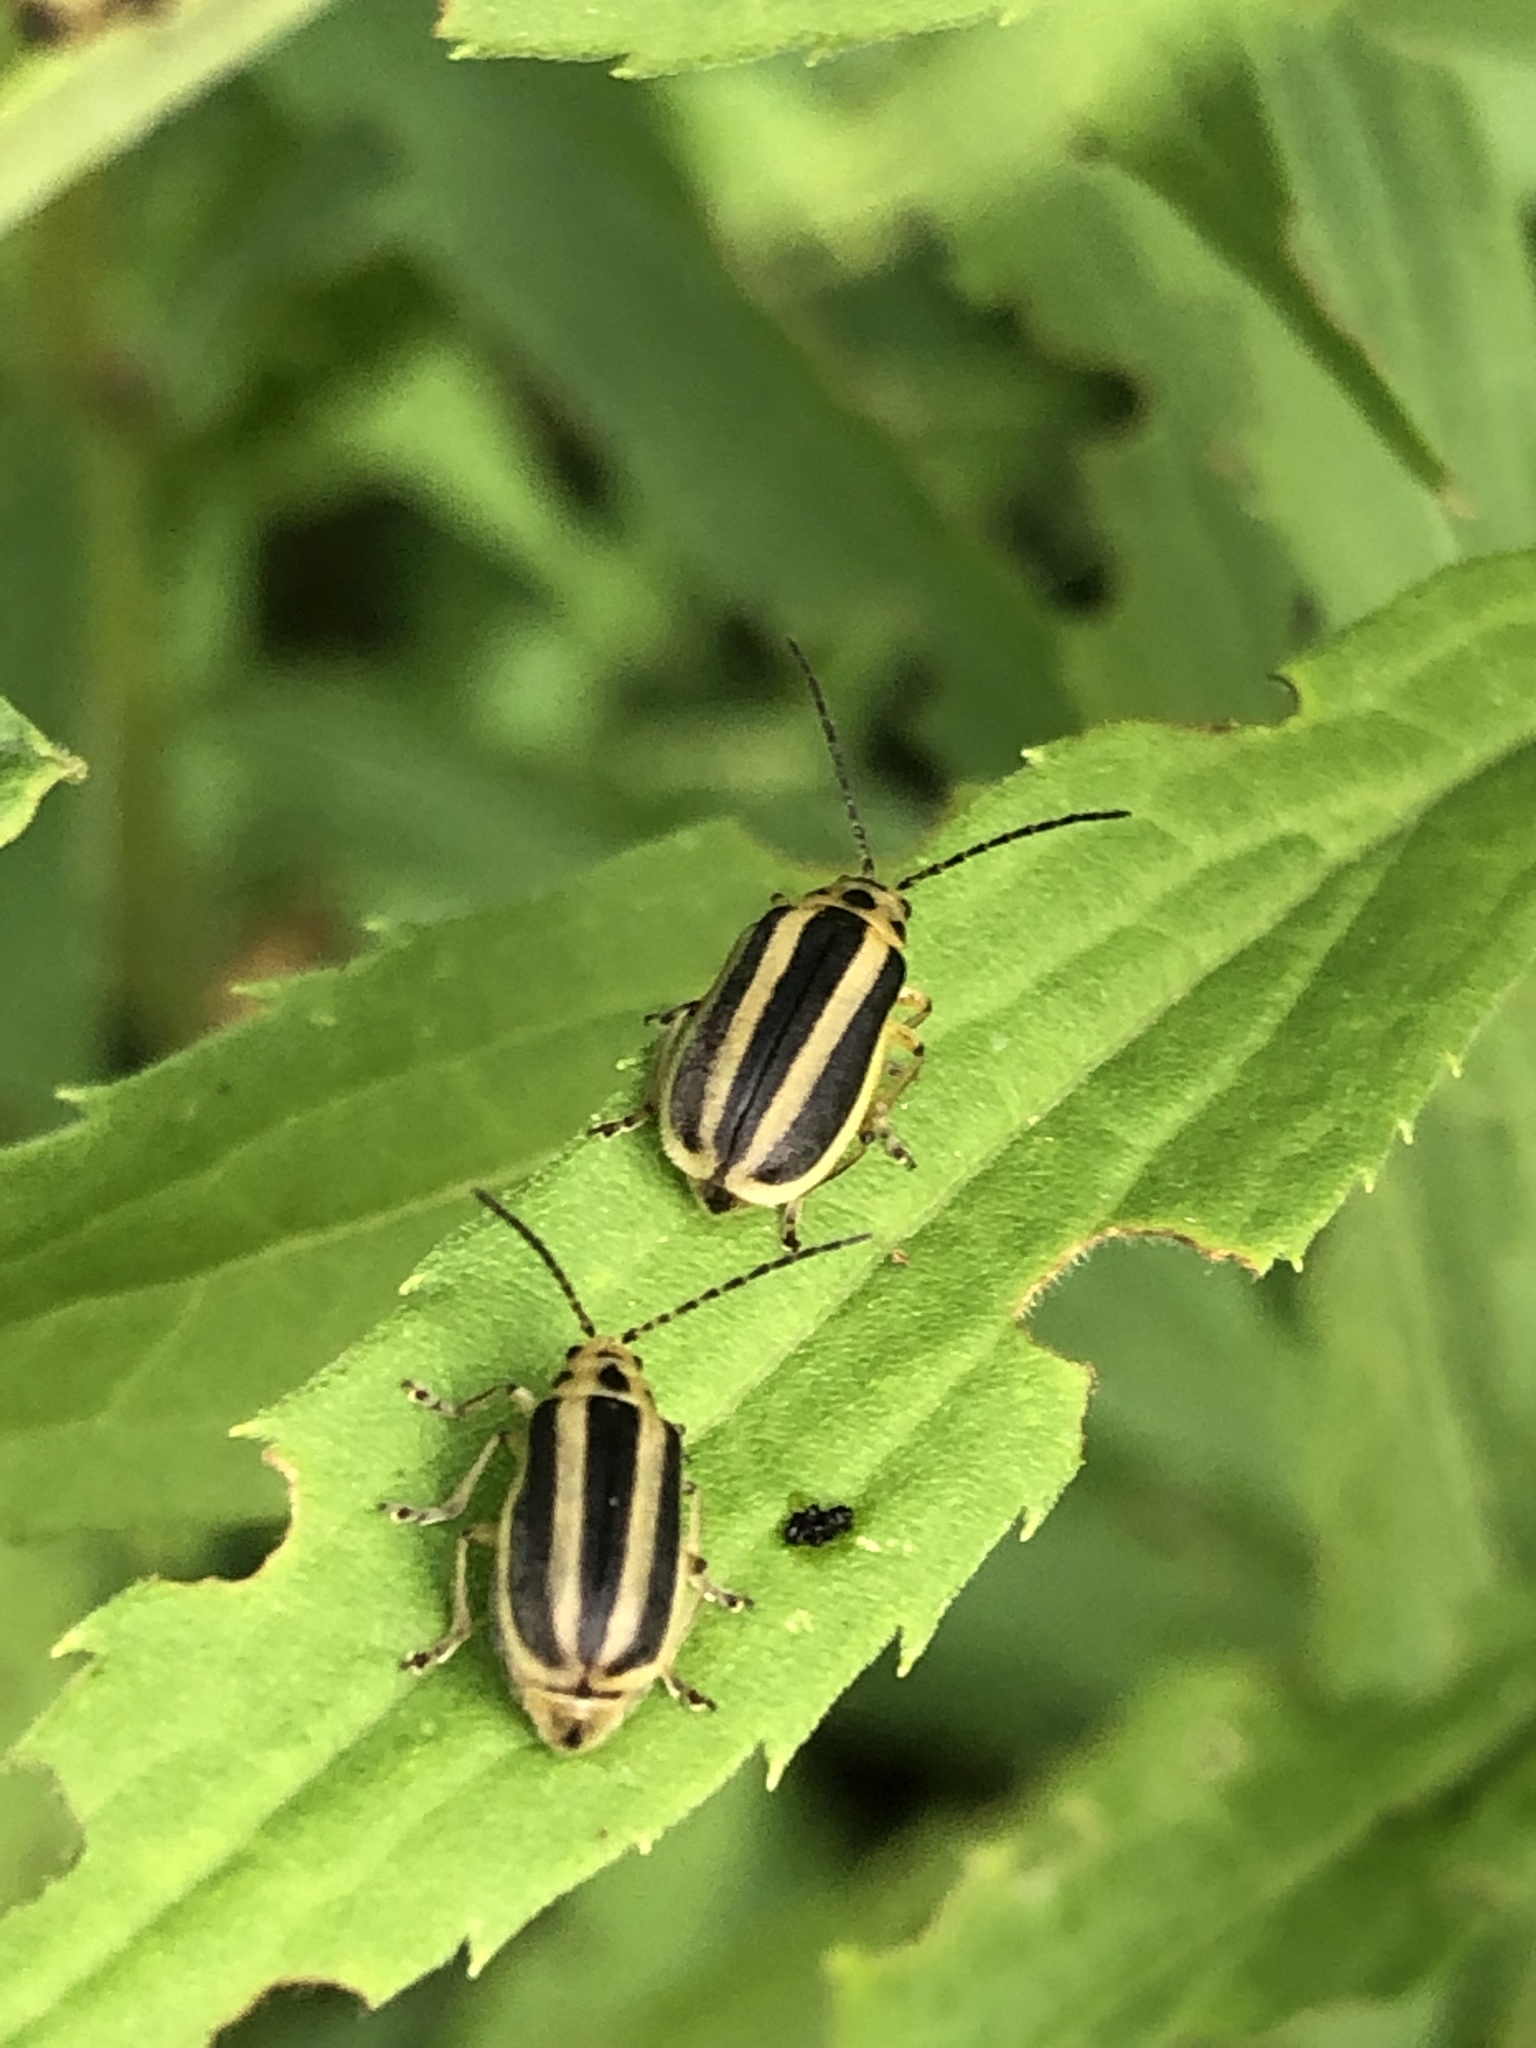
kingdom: Animalia
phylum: Arthropoda
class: Insecta
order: Coleoptera
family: Chrysomelidae
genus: Trirhabda
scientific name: Trirhabda canadensis
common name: Goldenrod leaf beetle
